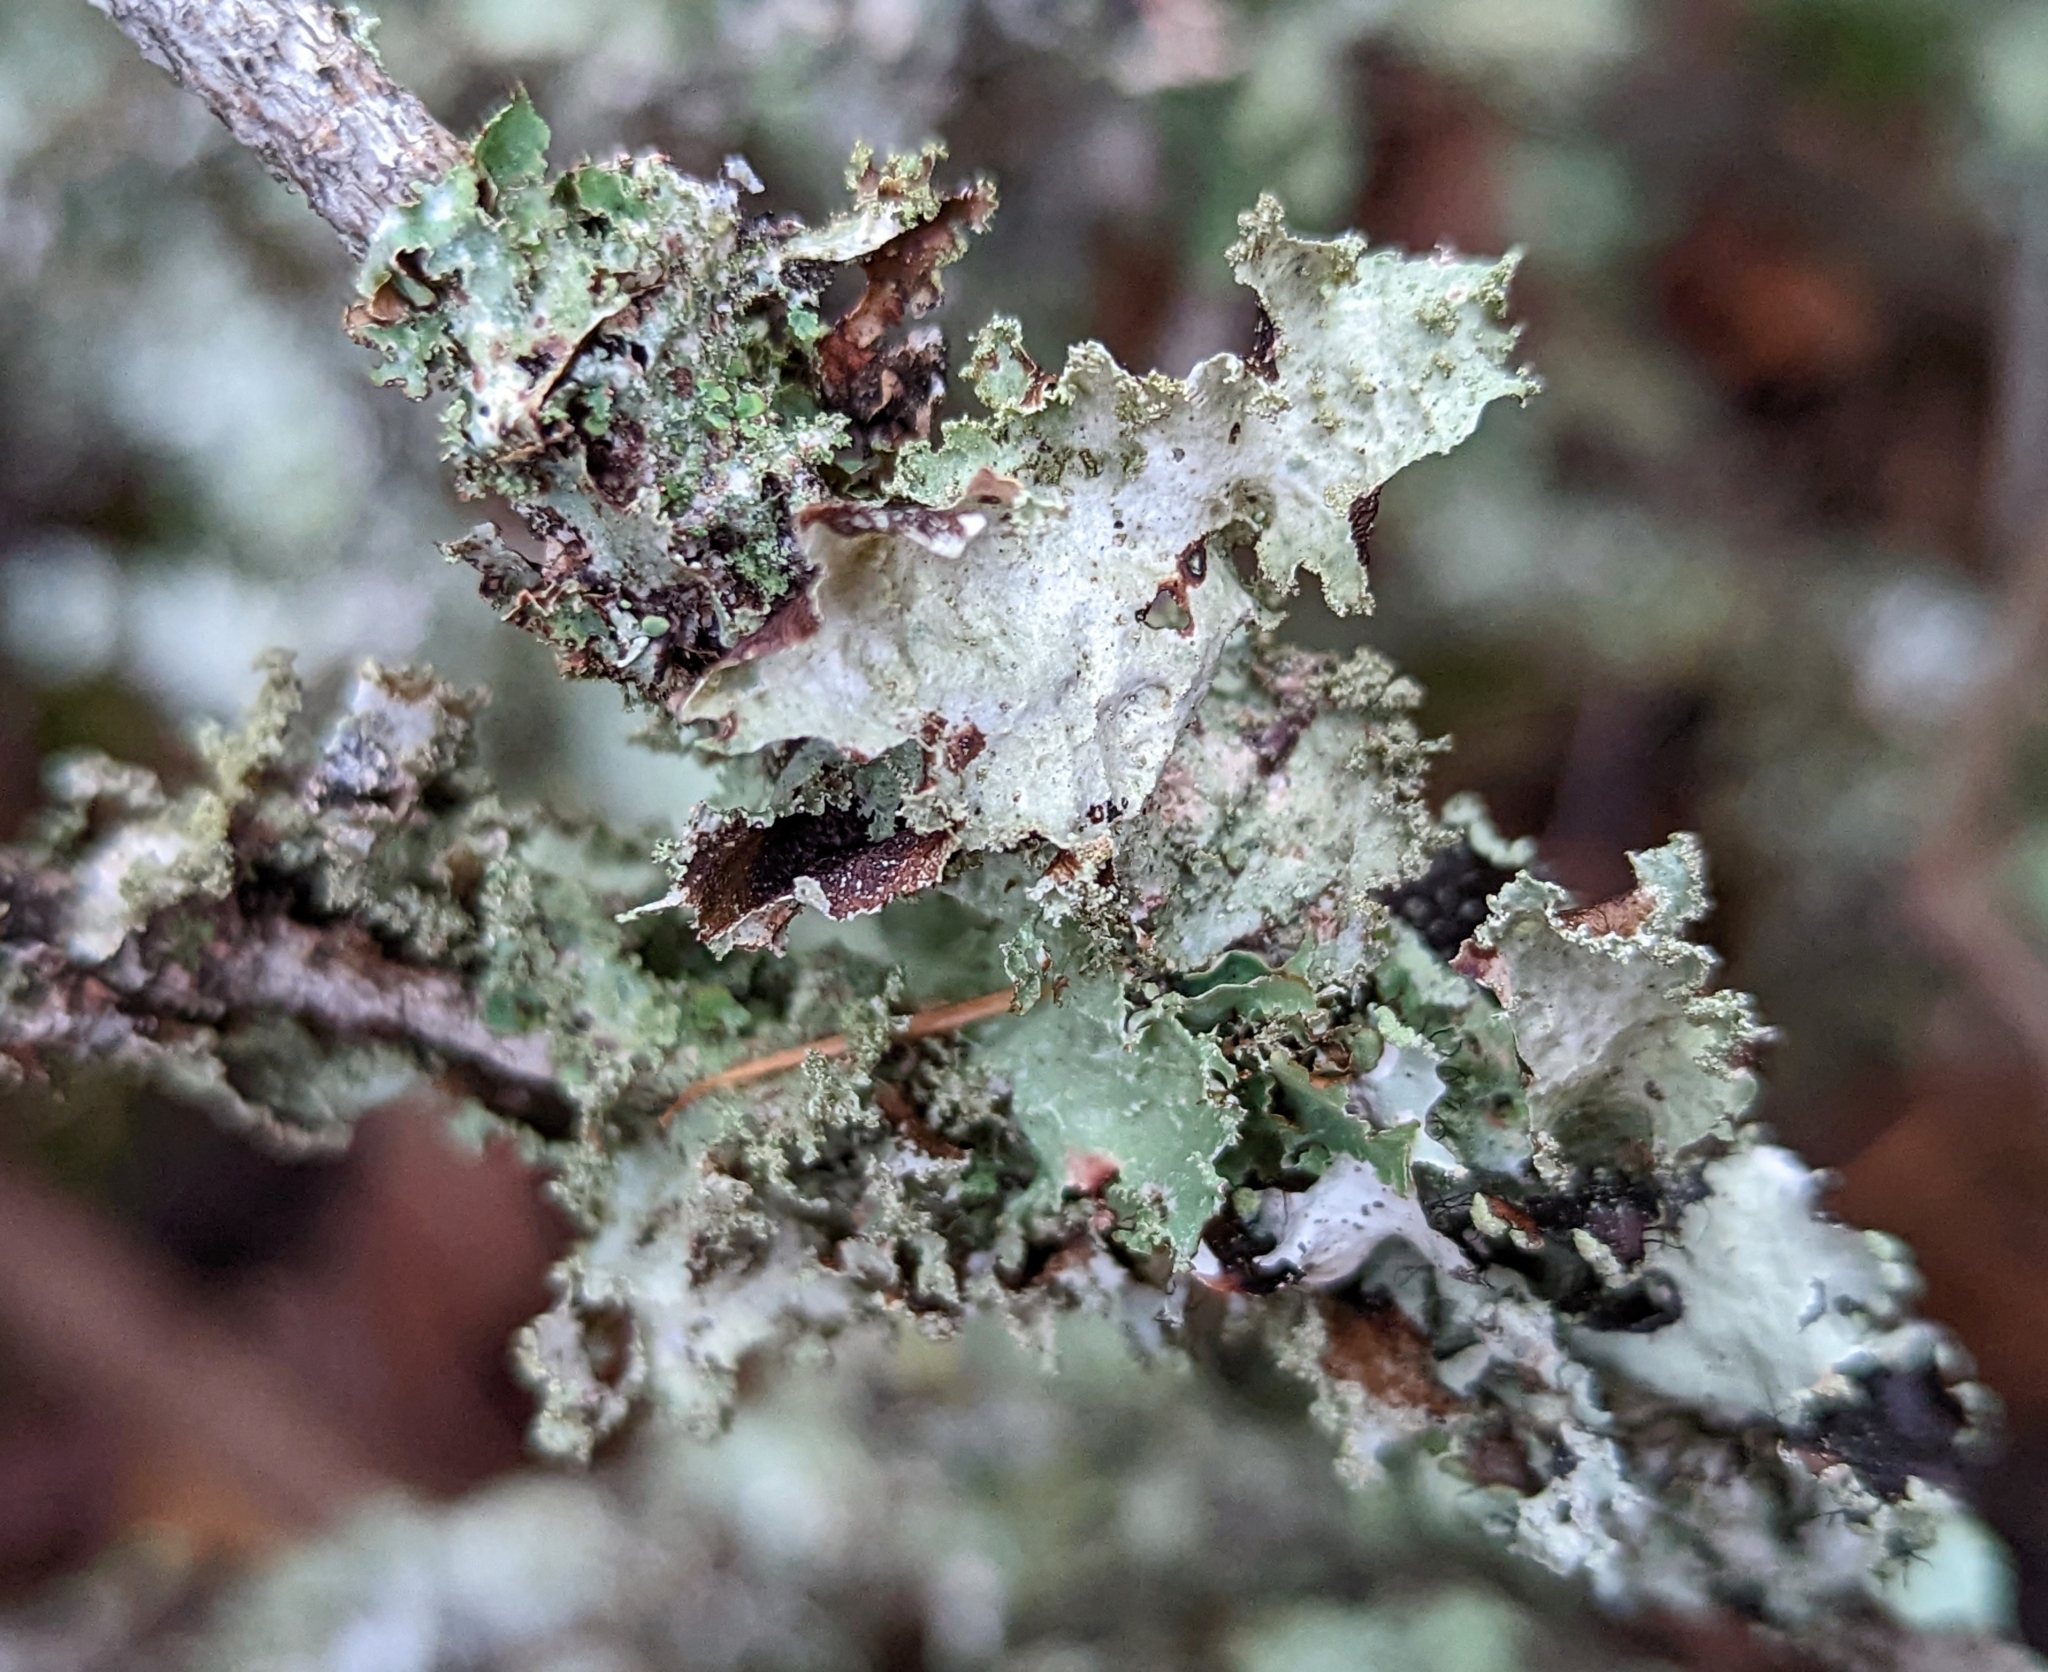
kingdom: Fungi
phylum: Ascomycota
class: Lecanoromycetes
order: Lecanorales
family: Parmeliaceae
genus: Platismatia
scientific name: Platismatia glauca
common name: Varied rag lichen
